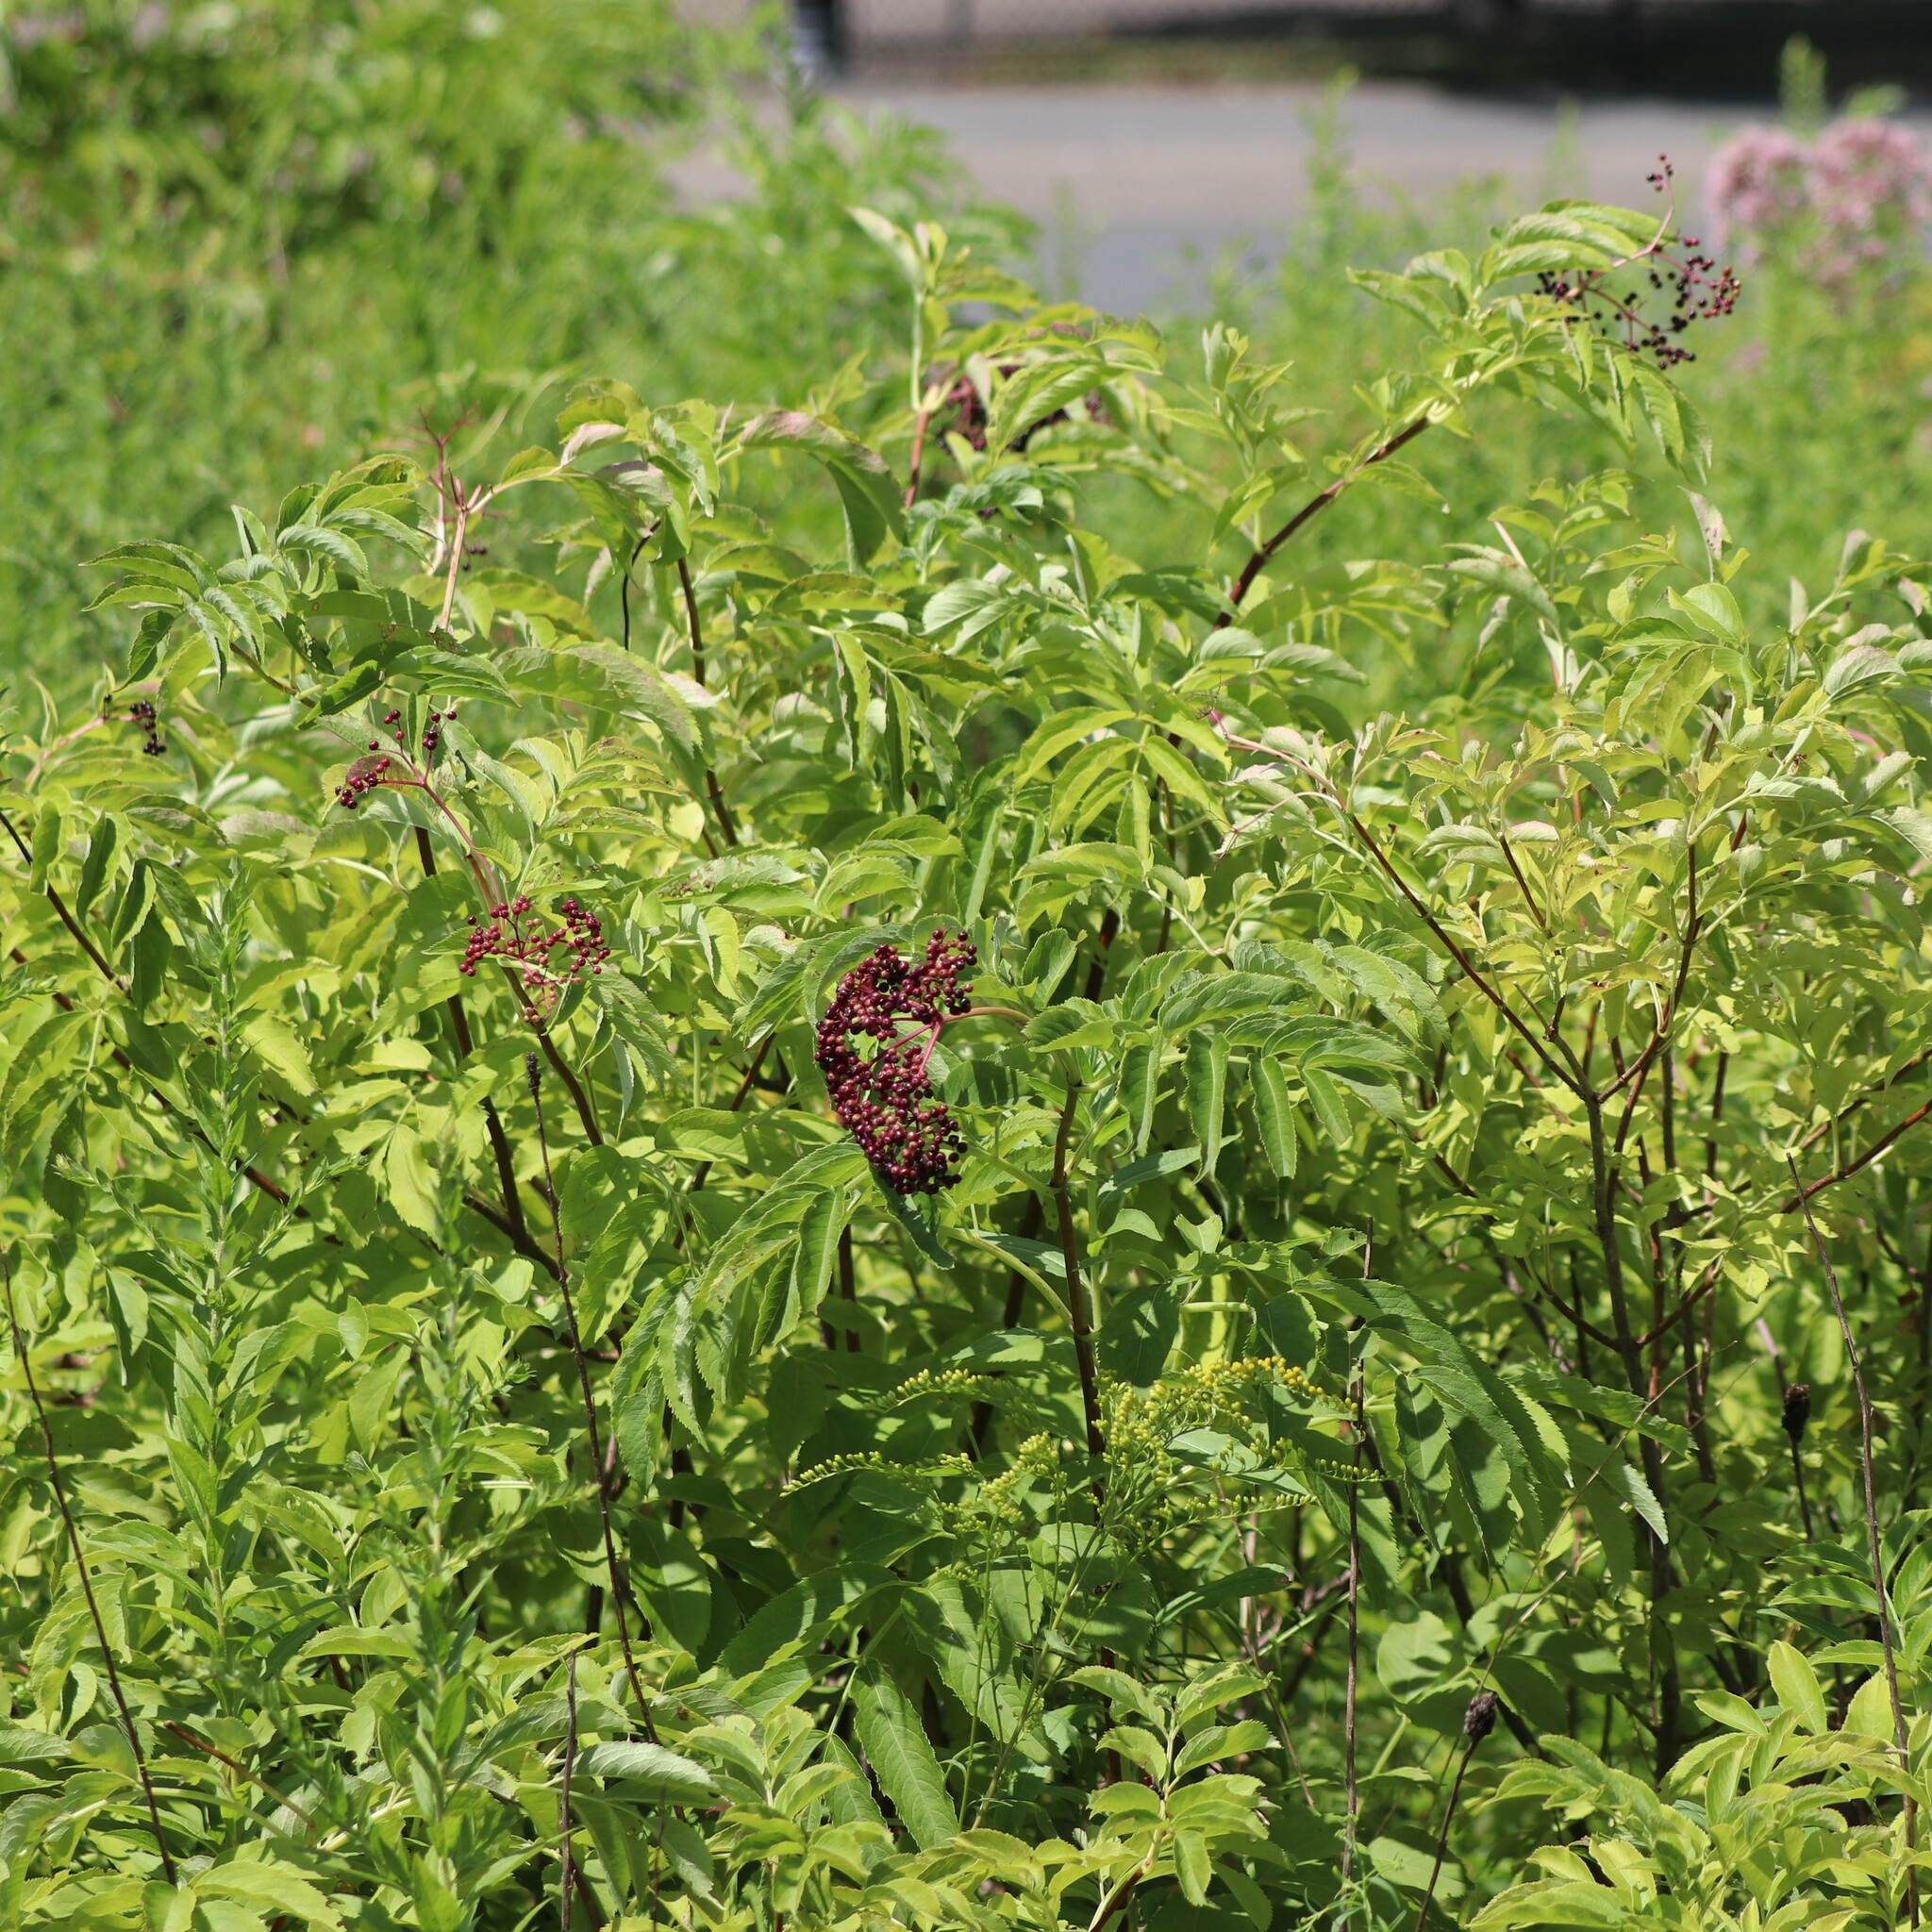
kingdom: Plantae
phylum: Tracheophyta
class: Magnoliopsida
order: Dipsacales
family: Viburnaceae
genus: Sambucus
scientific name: Sambucus canadensis
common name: American elder
